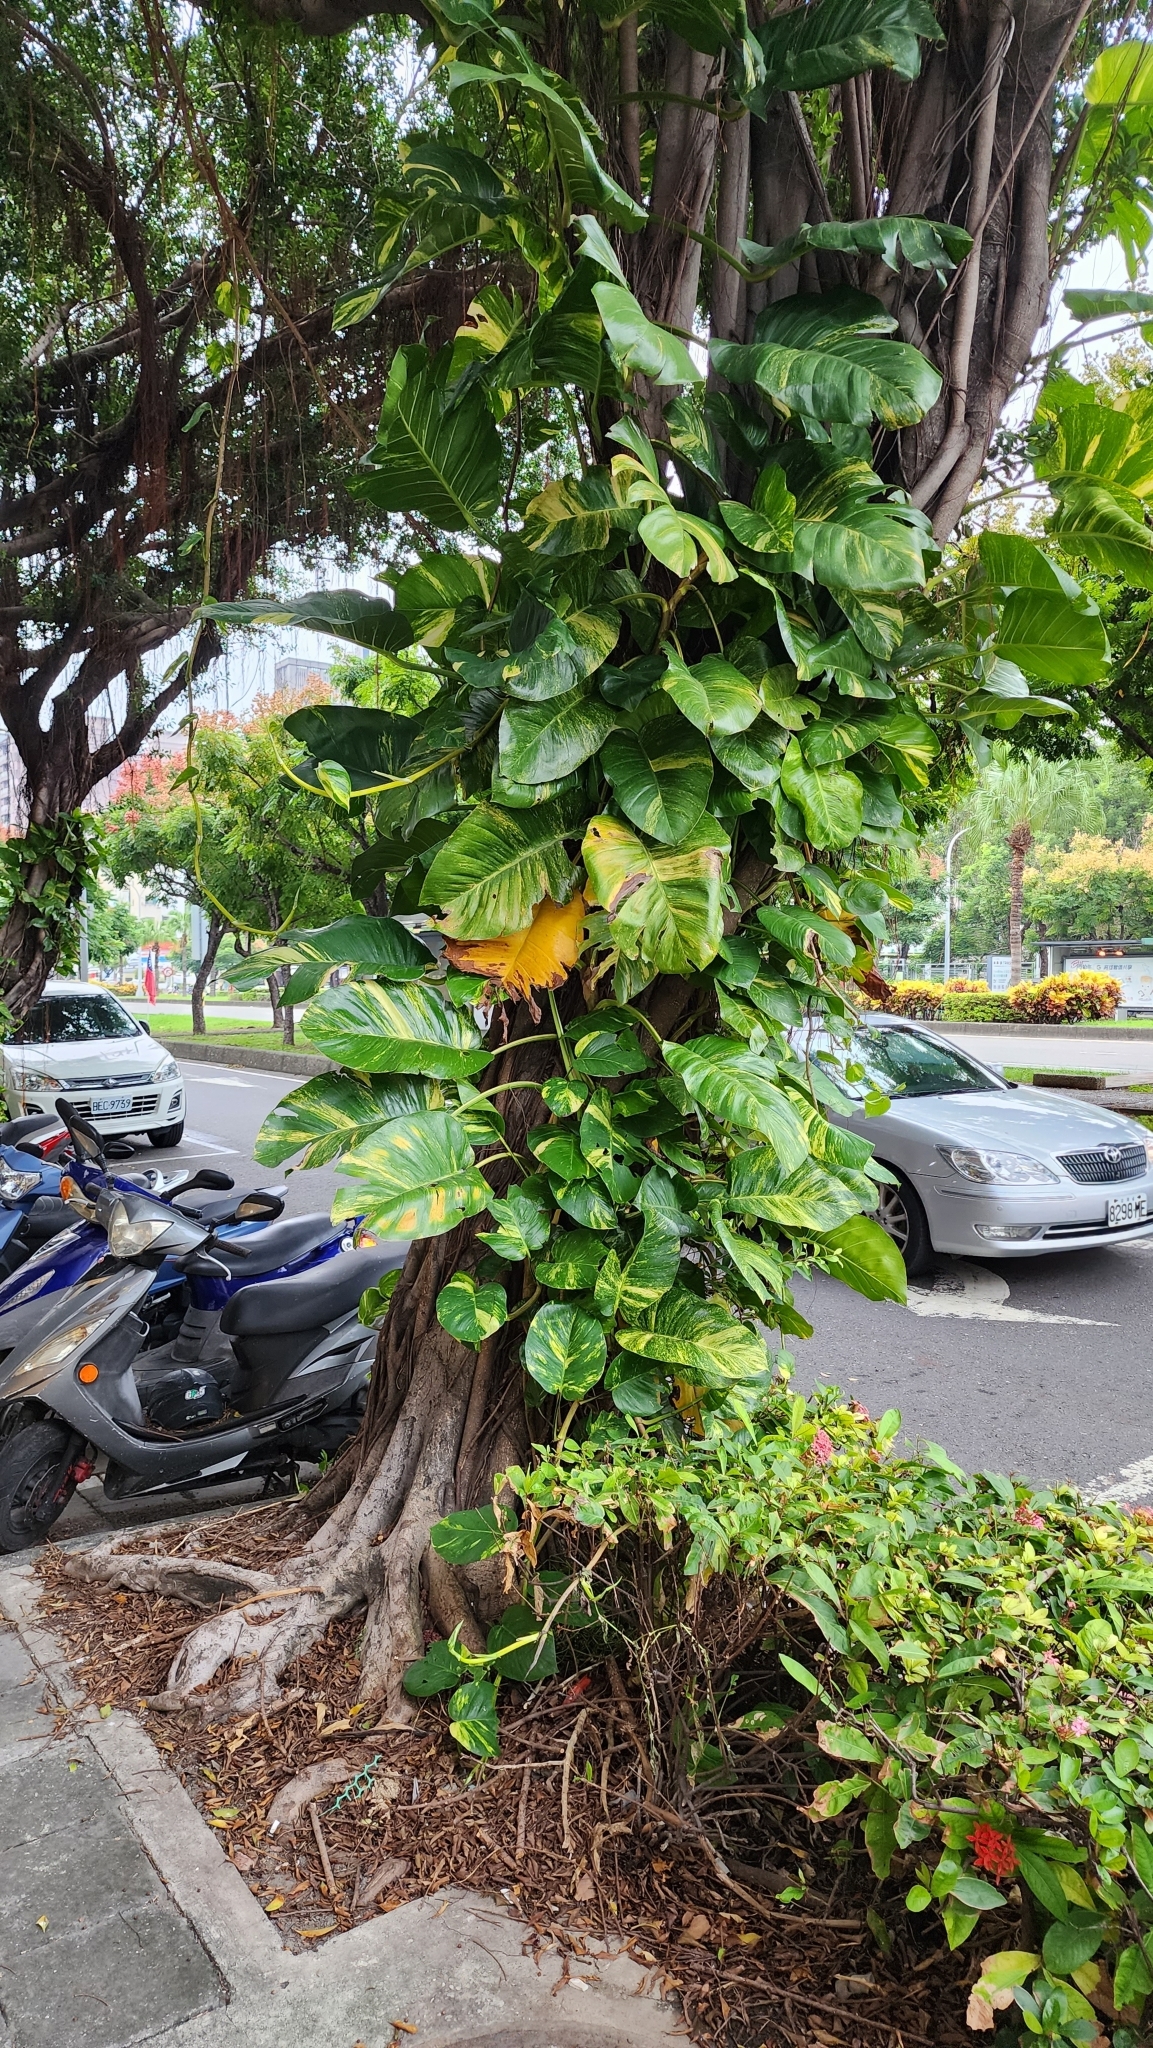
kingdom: Plantae
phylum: Tracheophyta
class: Liliopsida
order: Alismatales
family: Araceae
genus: Epipremnum
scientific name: Epipremnum aureum
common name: Golden hunter's-robe
